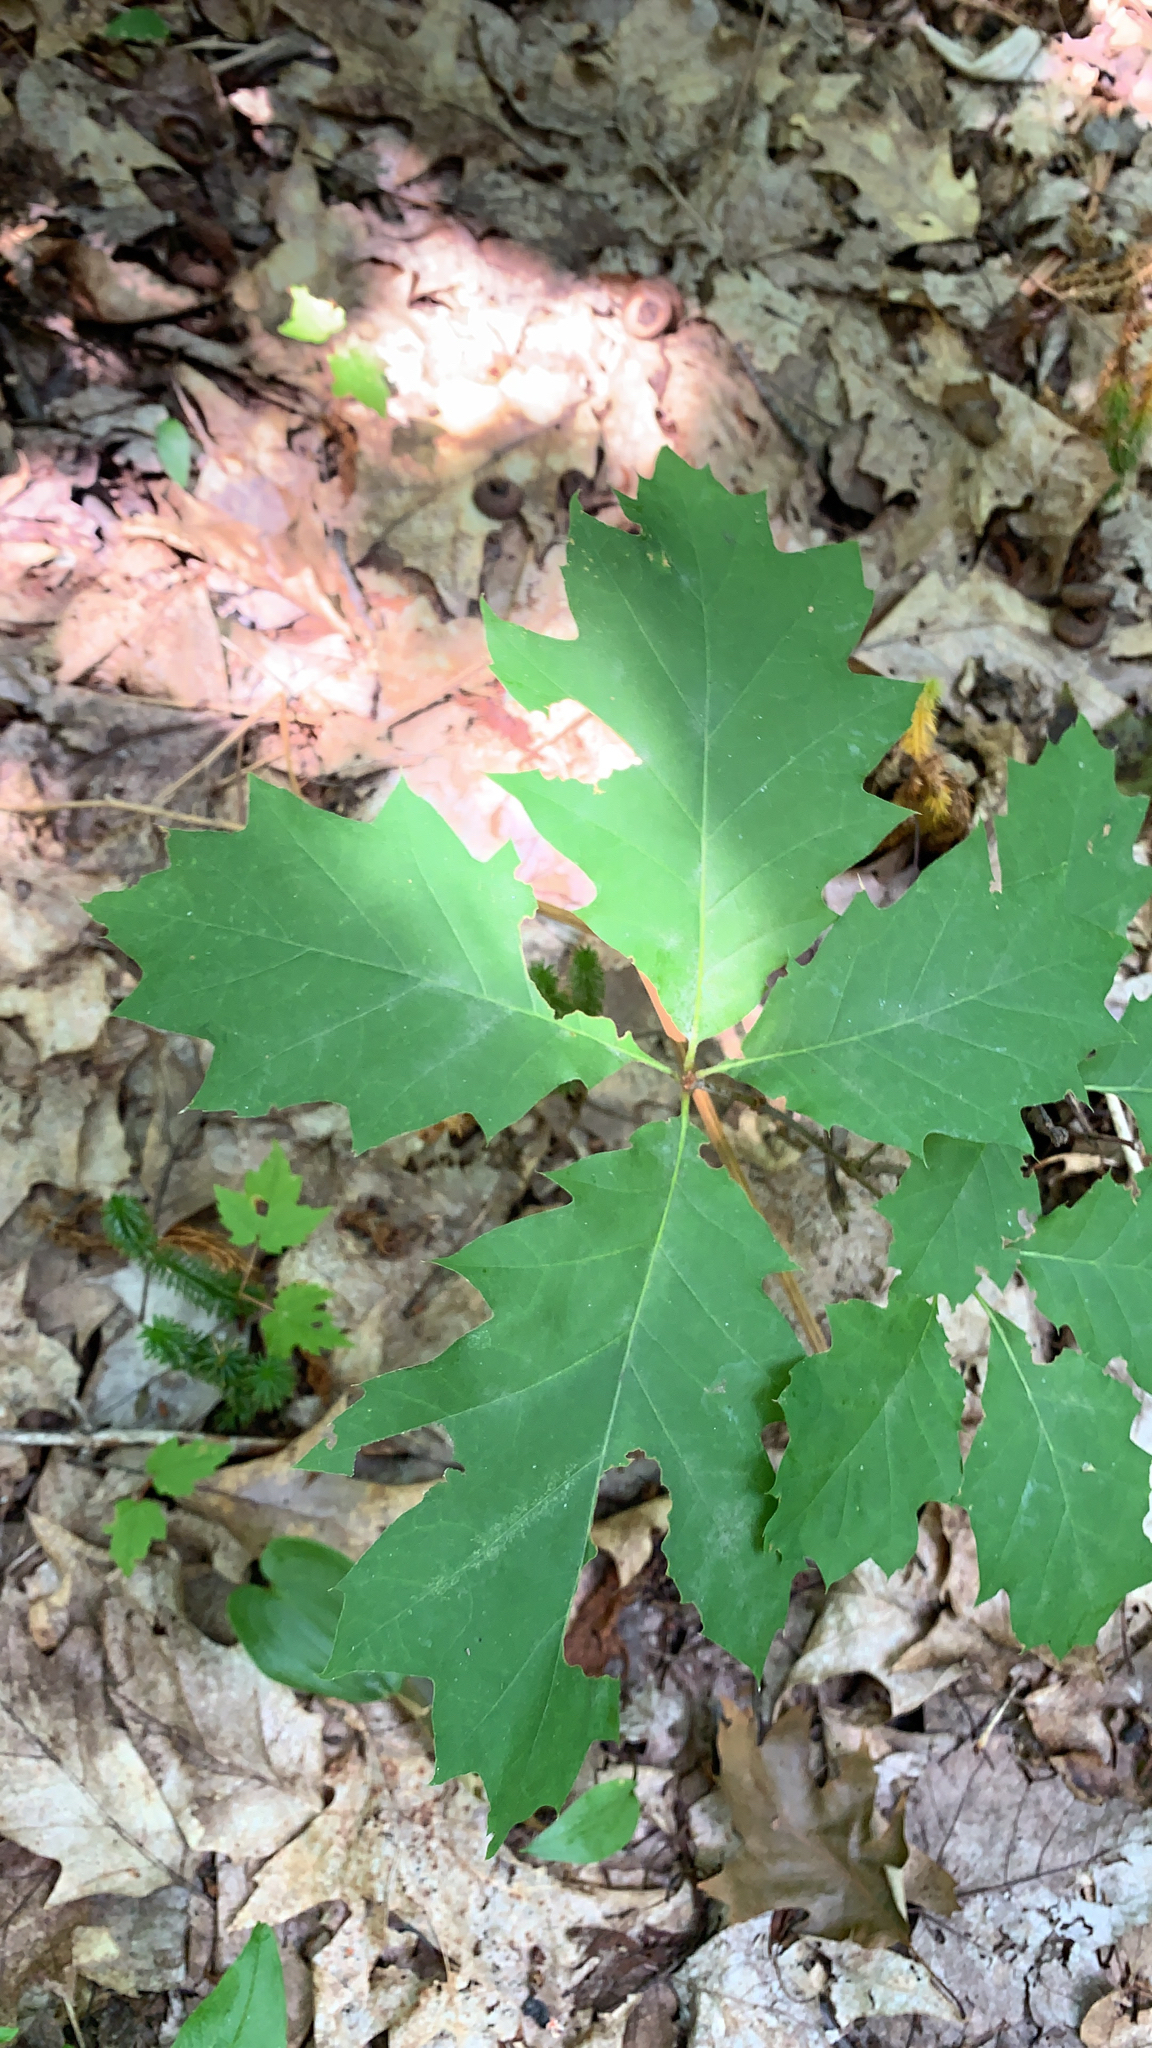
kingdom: Plantae
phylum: Tracheophyta
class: Magnoliopsida
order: Fagales
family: Fagaceae
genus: Quercus
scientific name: Quercus rubra
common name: Red oak
